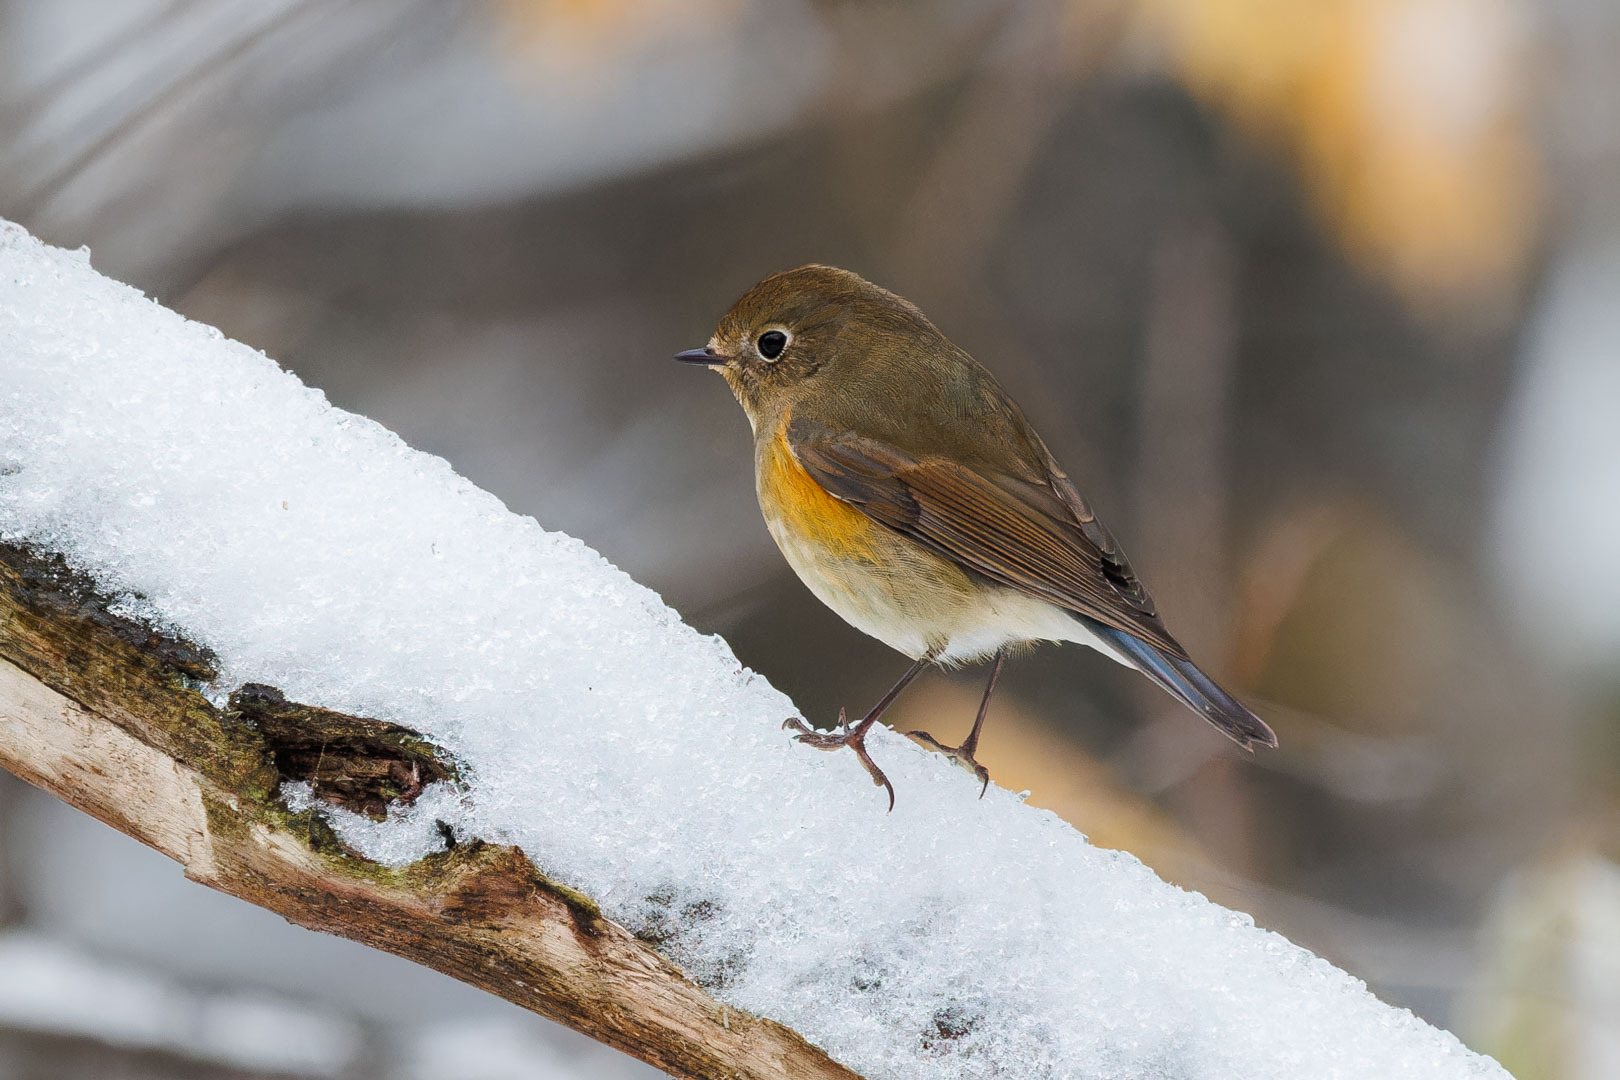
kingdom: Animalia
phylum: Chordata
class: Aves
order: Passeriformes
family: Muscicapidae
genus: Tarsiger
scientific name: Tarsiger cyanurus
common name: Red-flanked bluetail
